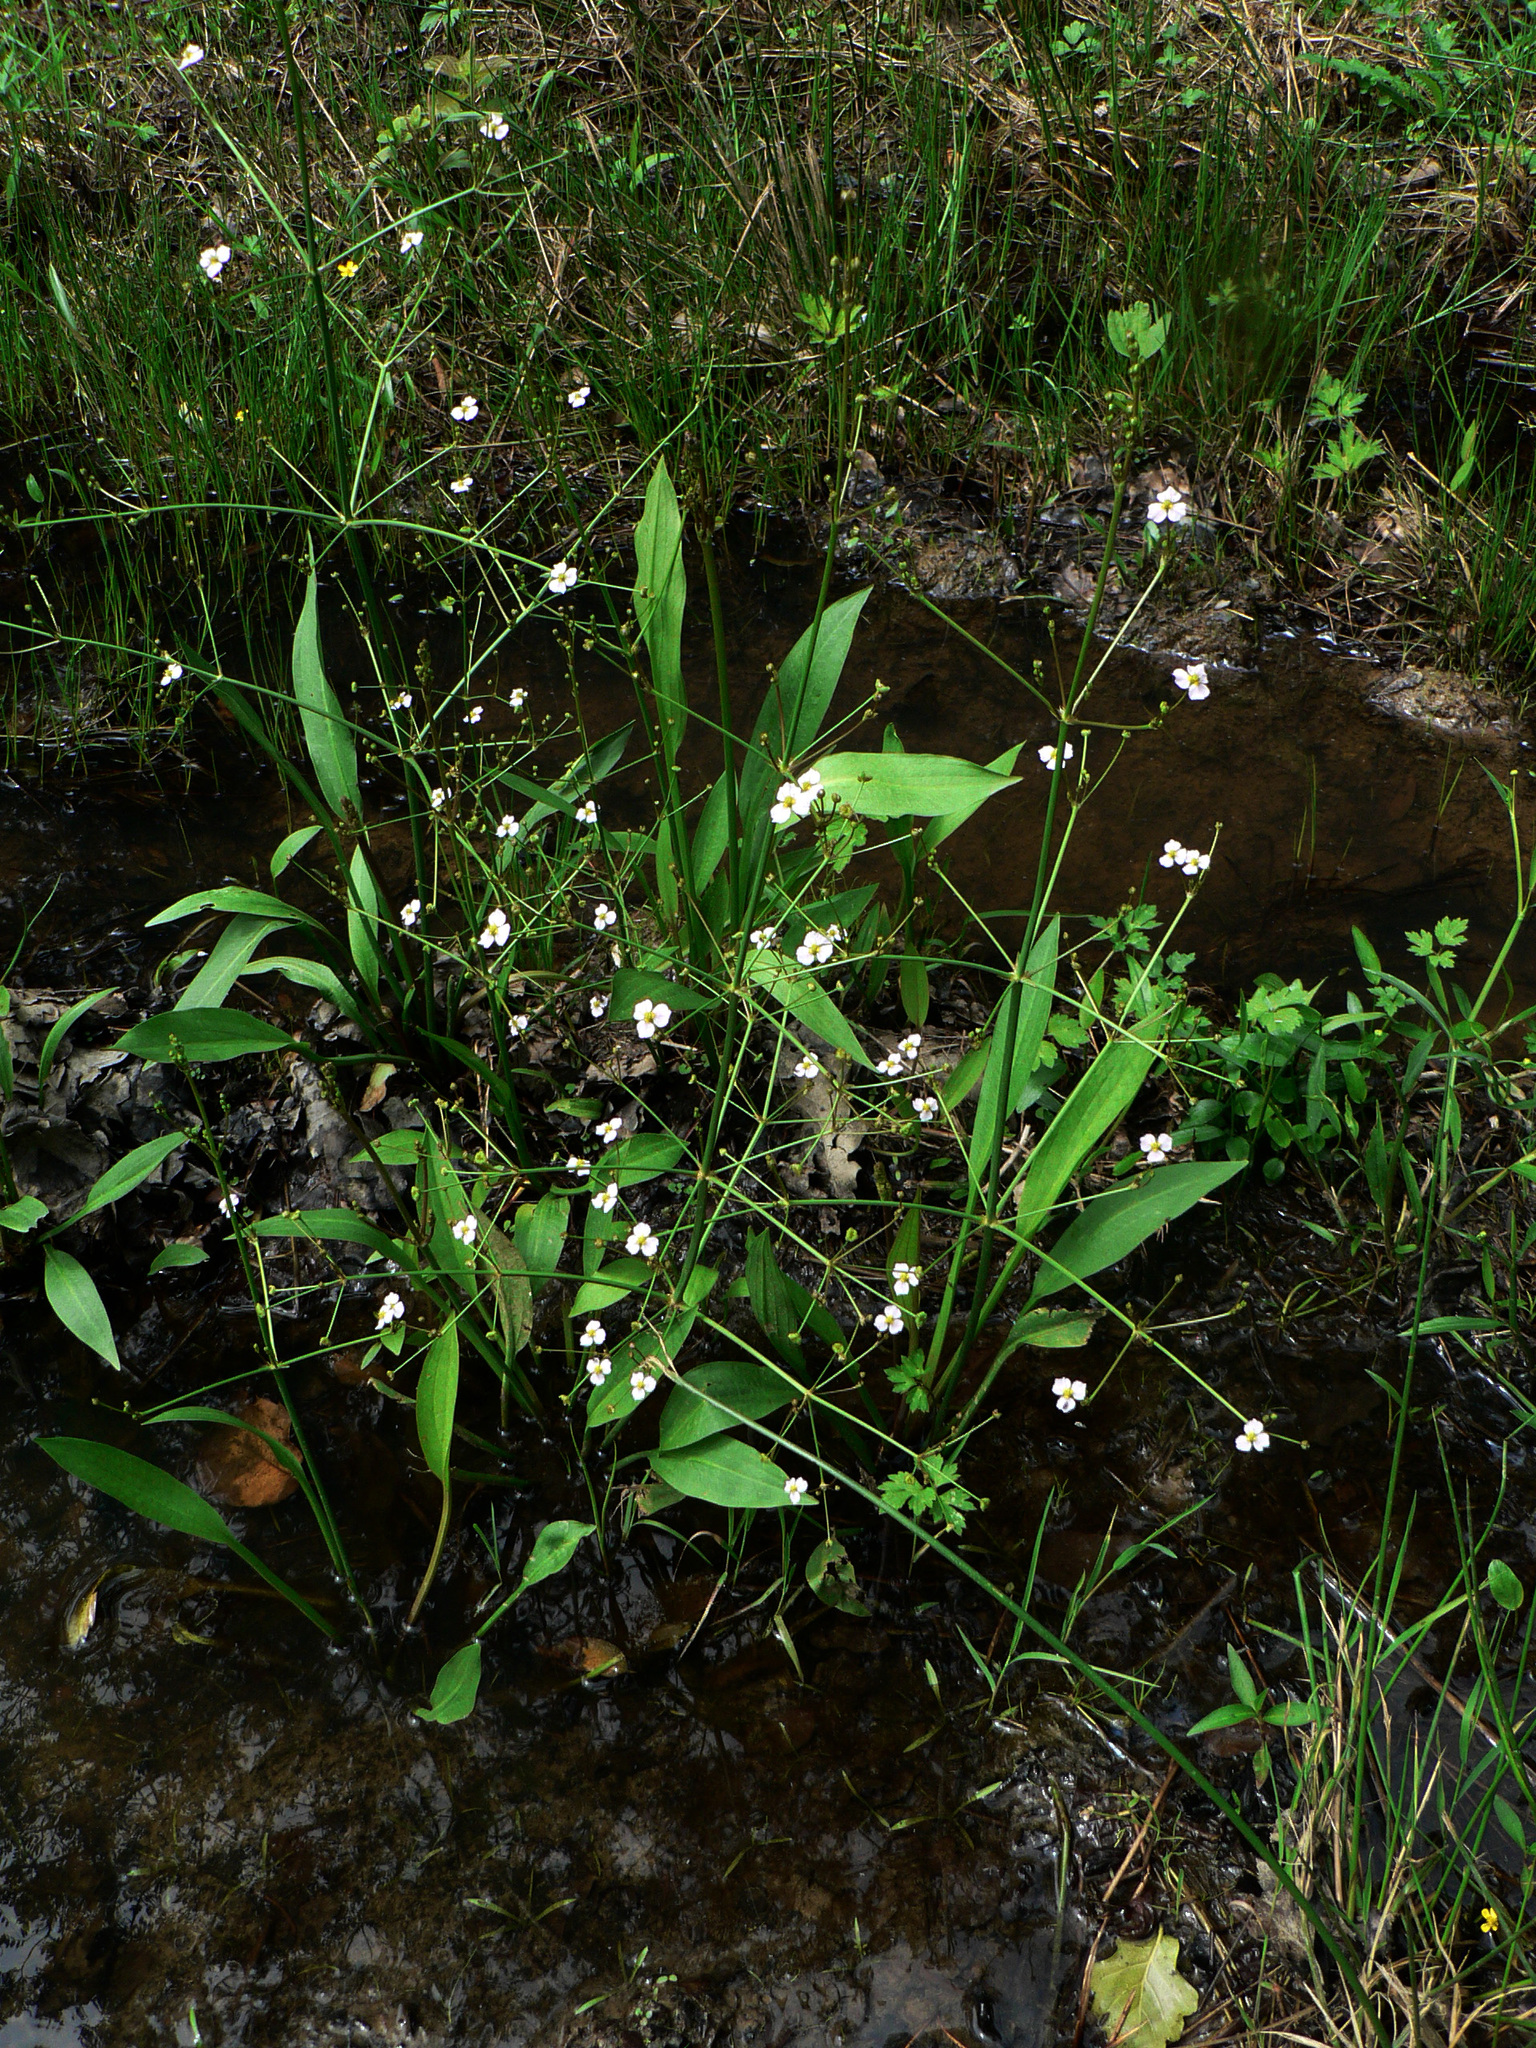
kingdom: Plantae
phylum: Tracheophyta
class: Liliopsida
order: Alismatales
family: Alismataceae
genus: Alisma
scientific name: Alisma lanceolatum
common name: Narrow-leaved water-plantain
